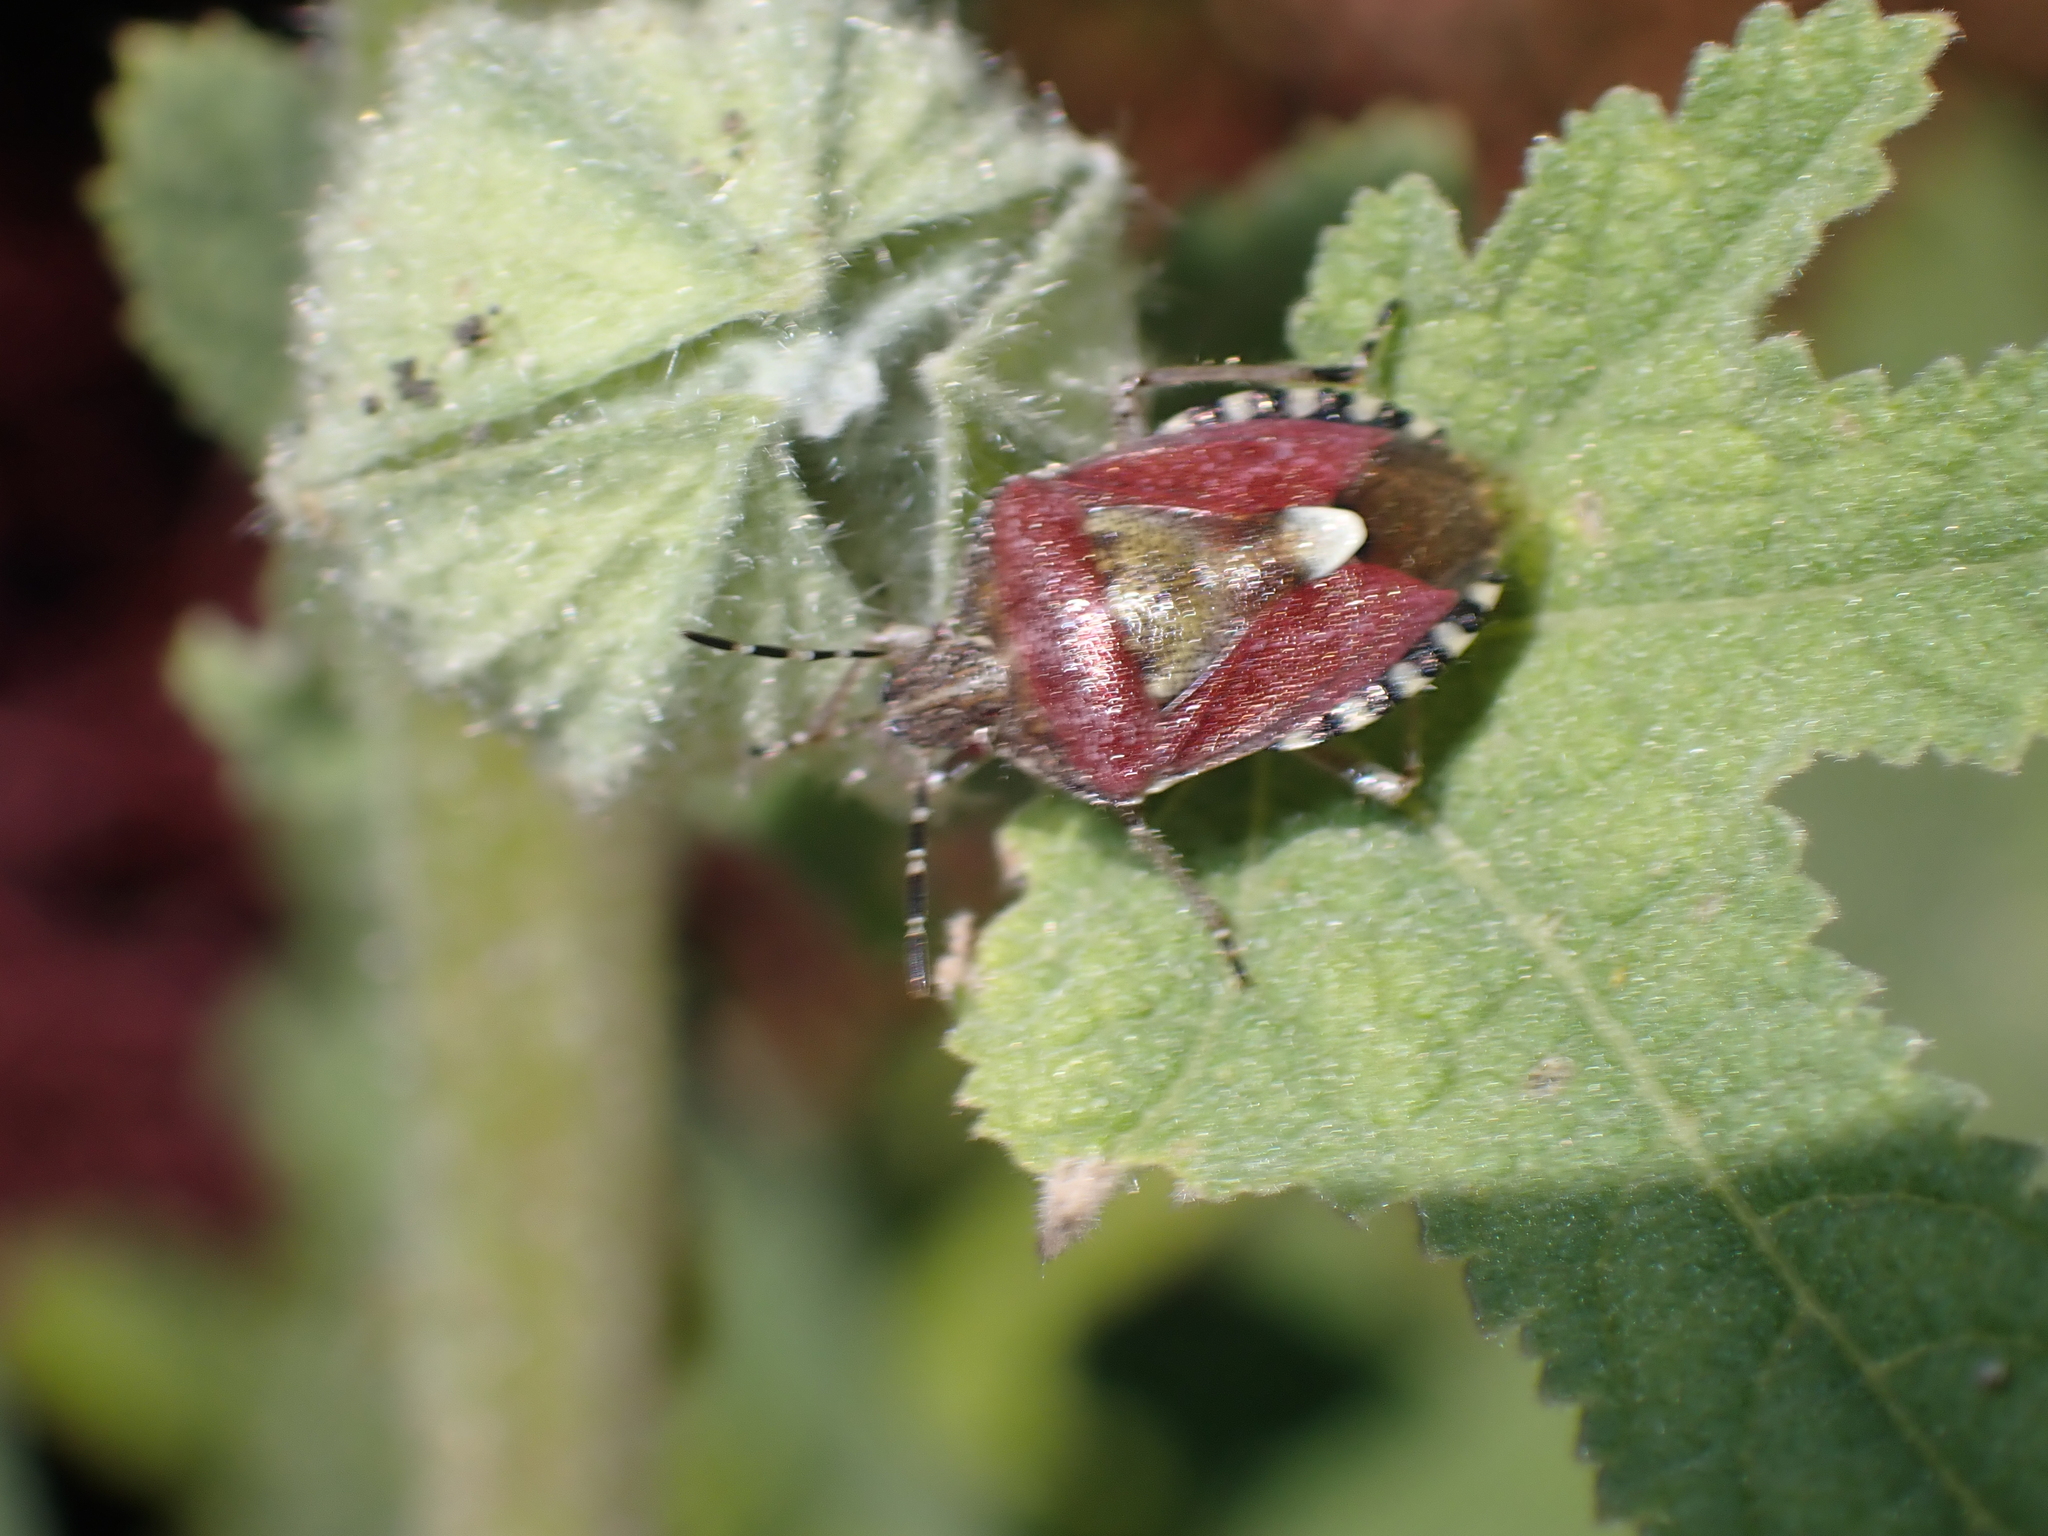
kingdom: Animalia
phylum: Arthropoda
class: Insecta
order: Hemiptera
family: Pentatomidae
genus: Dolycoris
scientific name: Dolycoris baccarum
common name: Sloe bug
